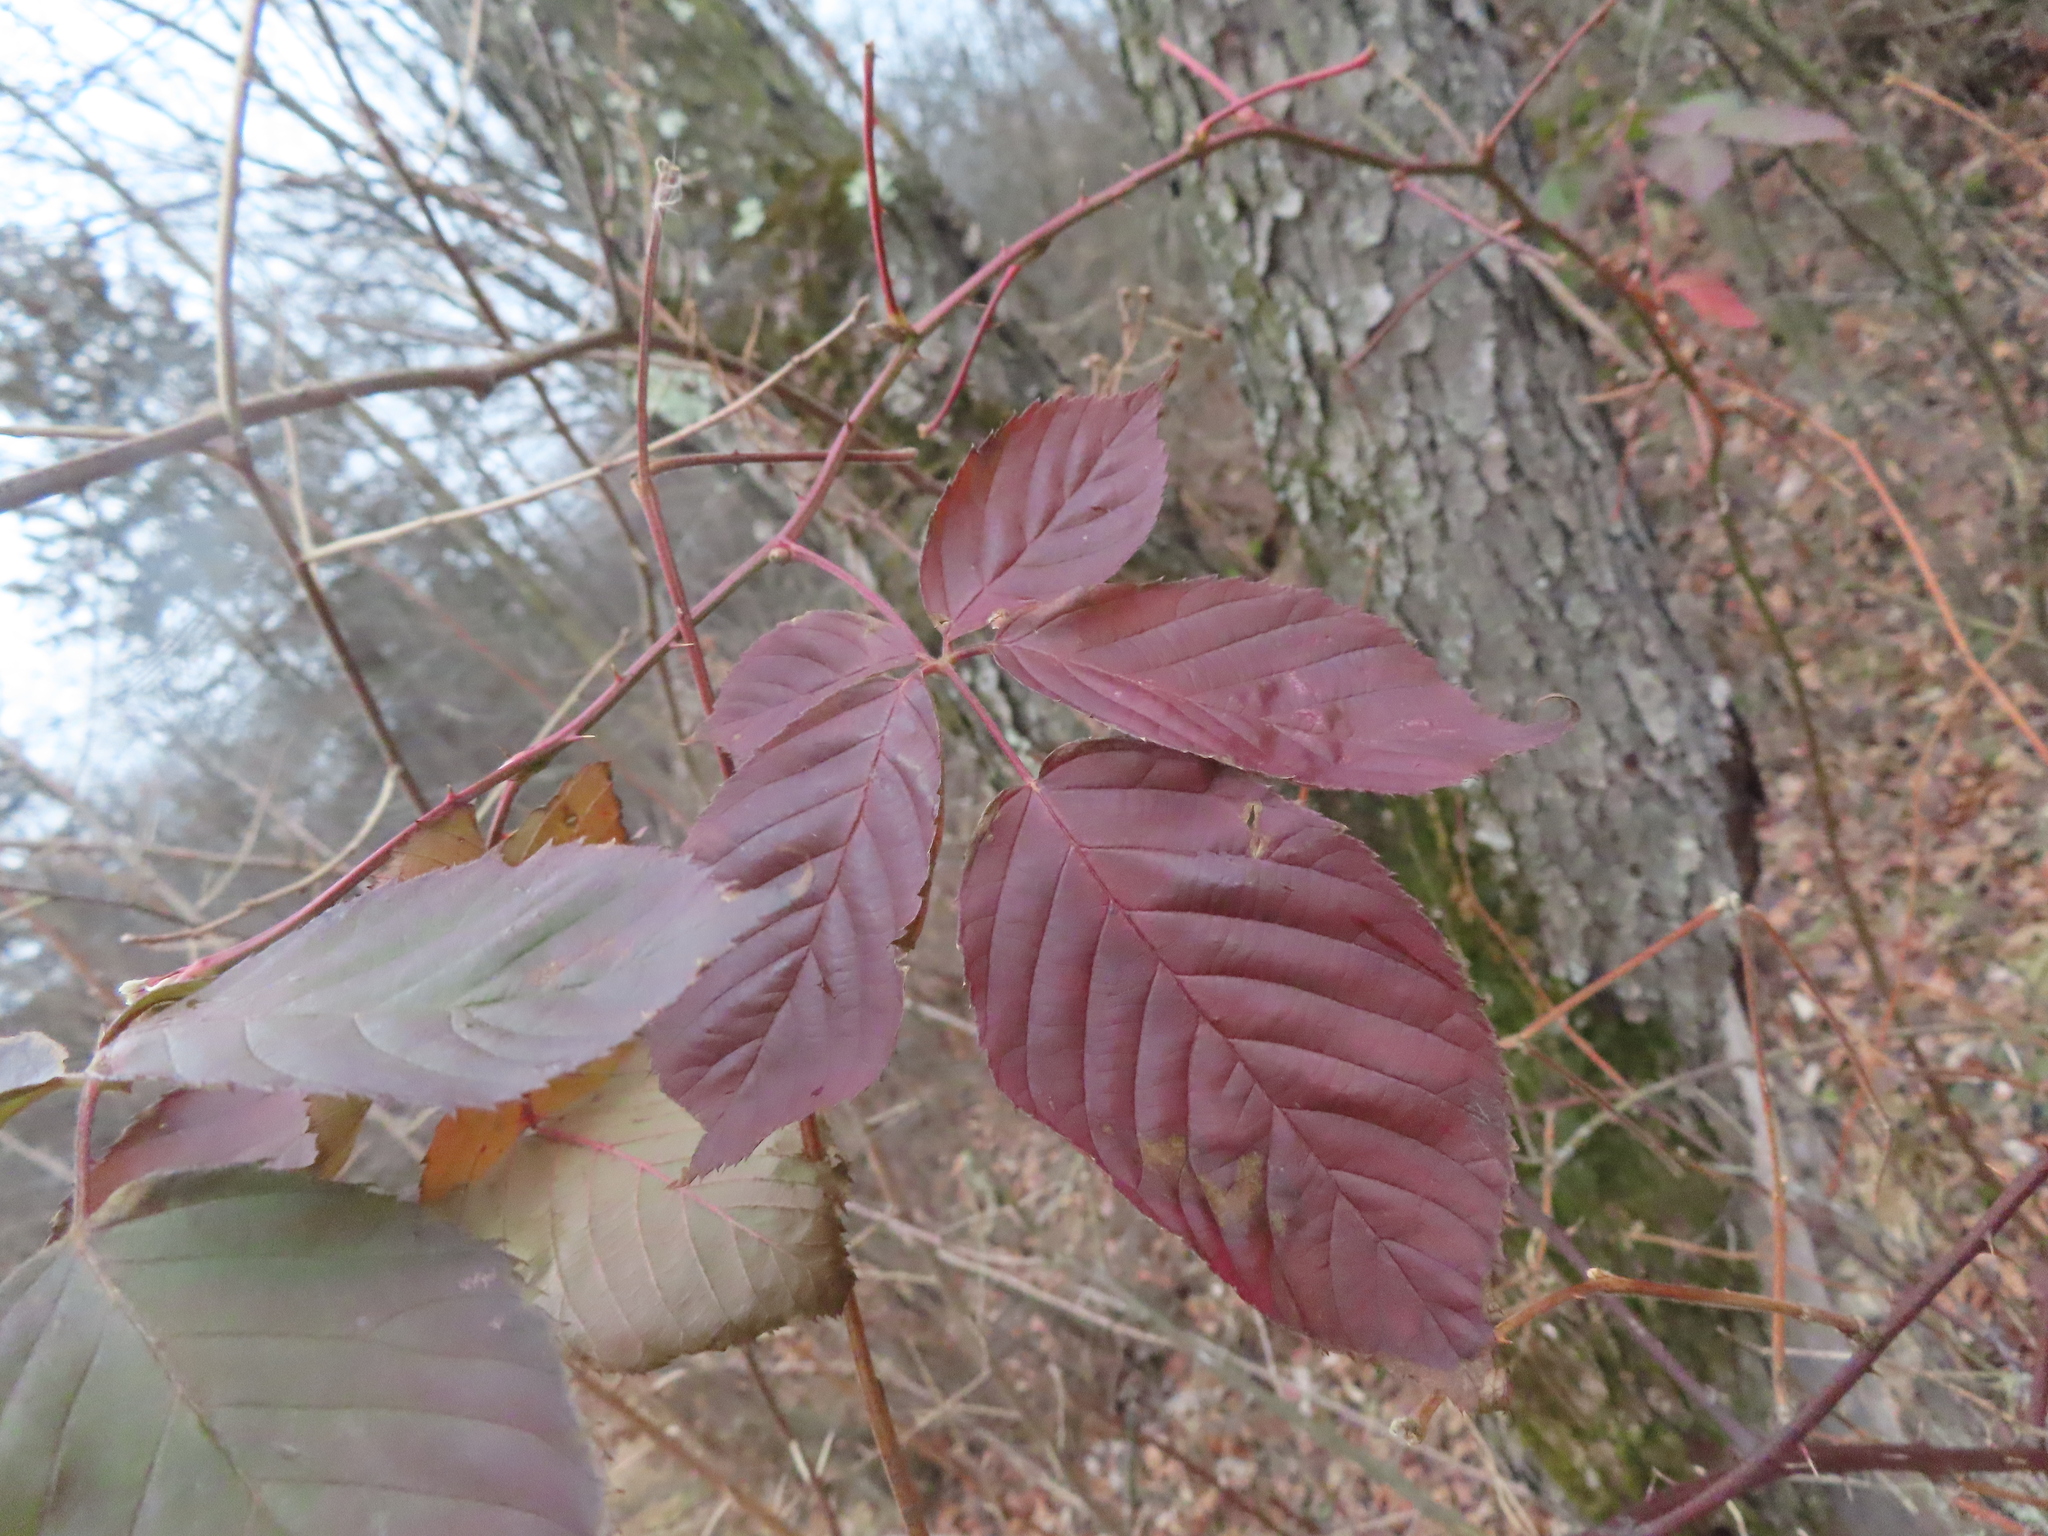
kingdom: Plantae
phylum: Tracheophyta
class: Magnoliopsida
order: Rosales
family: Rosaceae
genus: Rubus
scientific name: Rubus allegheniensis
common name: Allegheny blackberry
